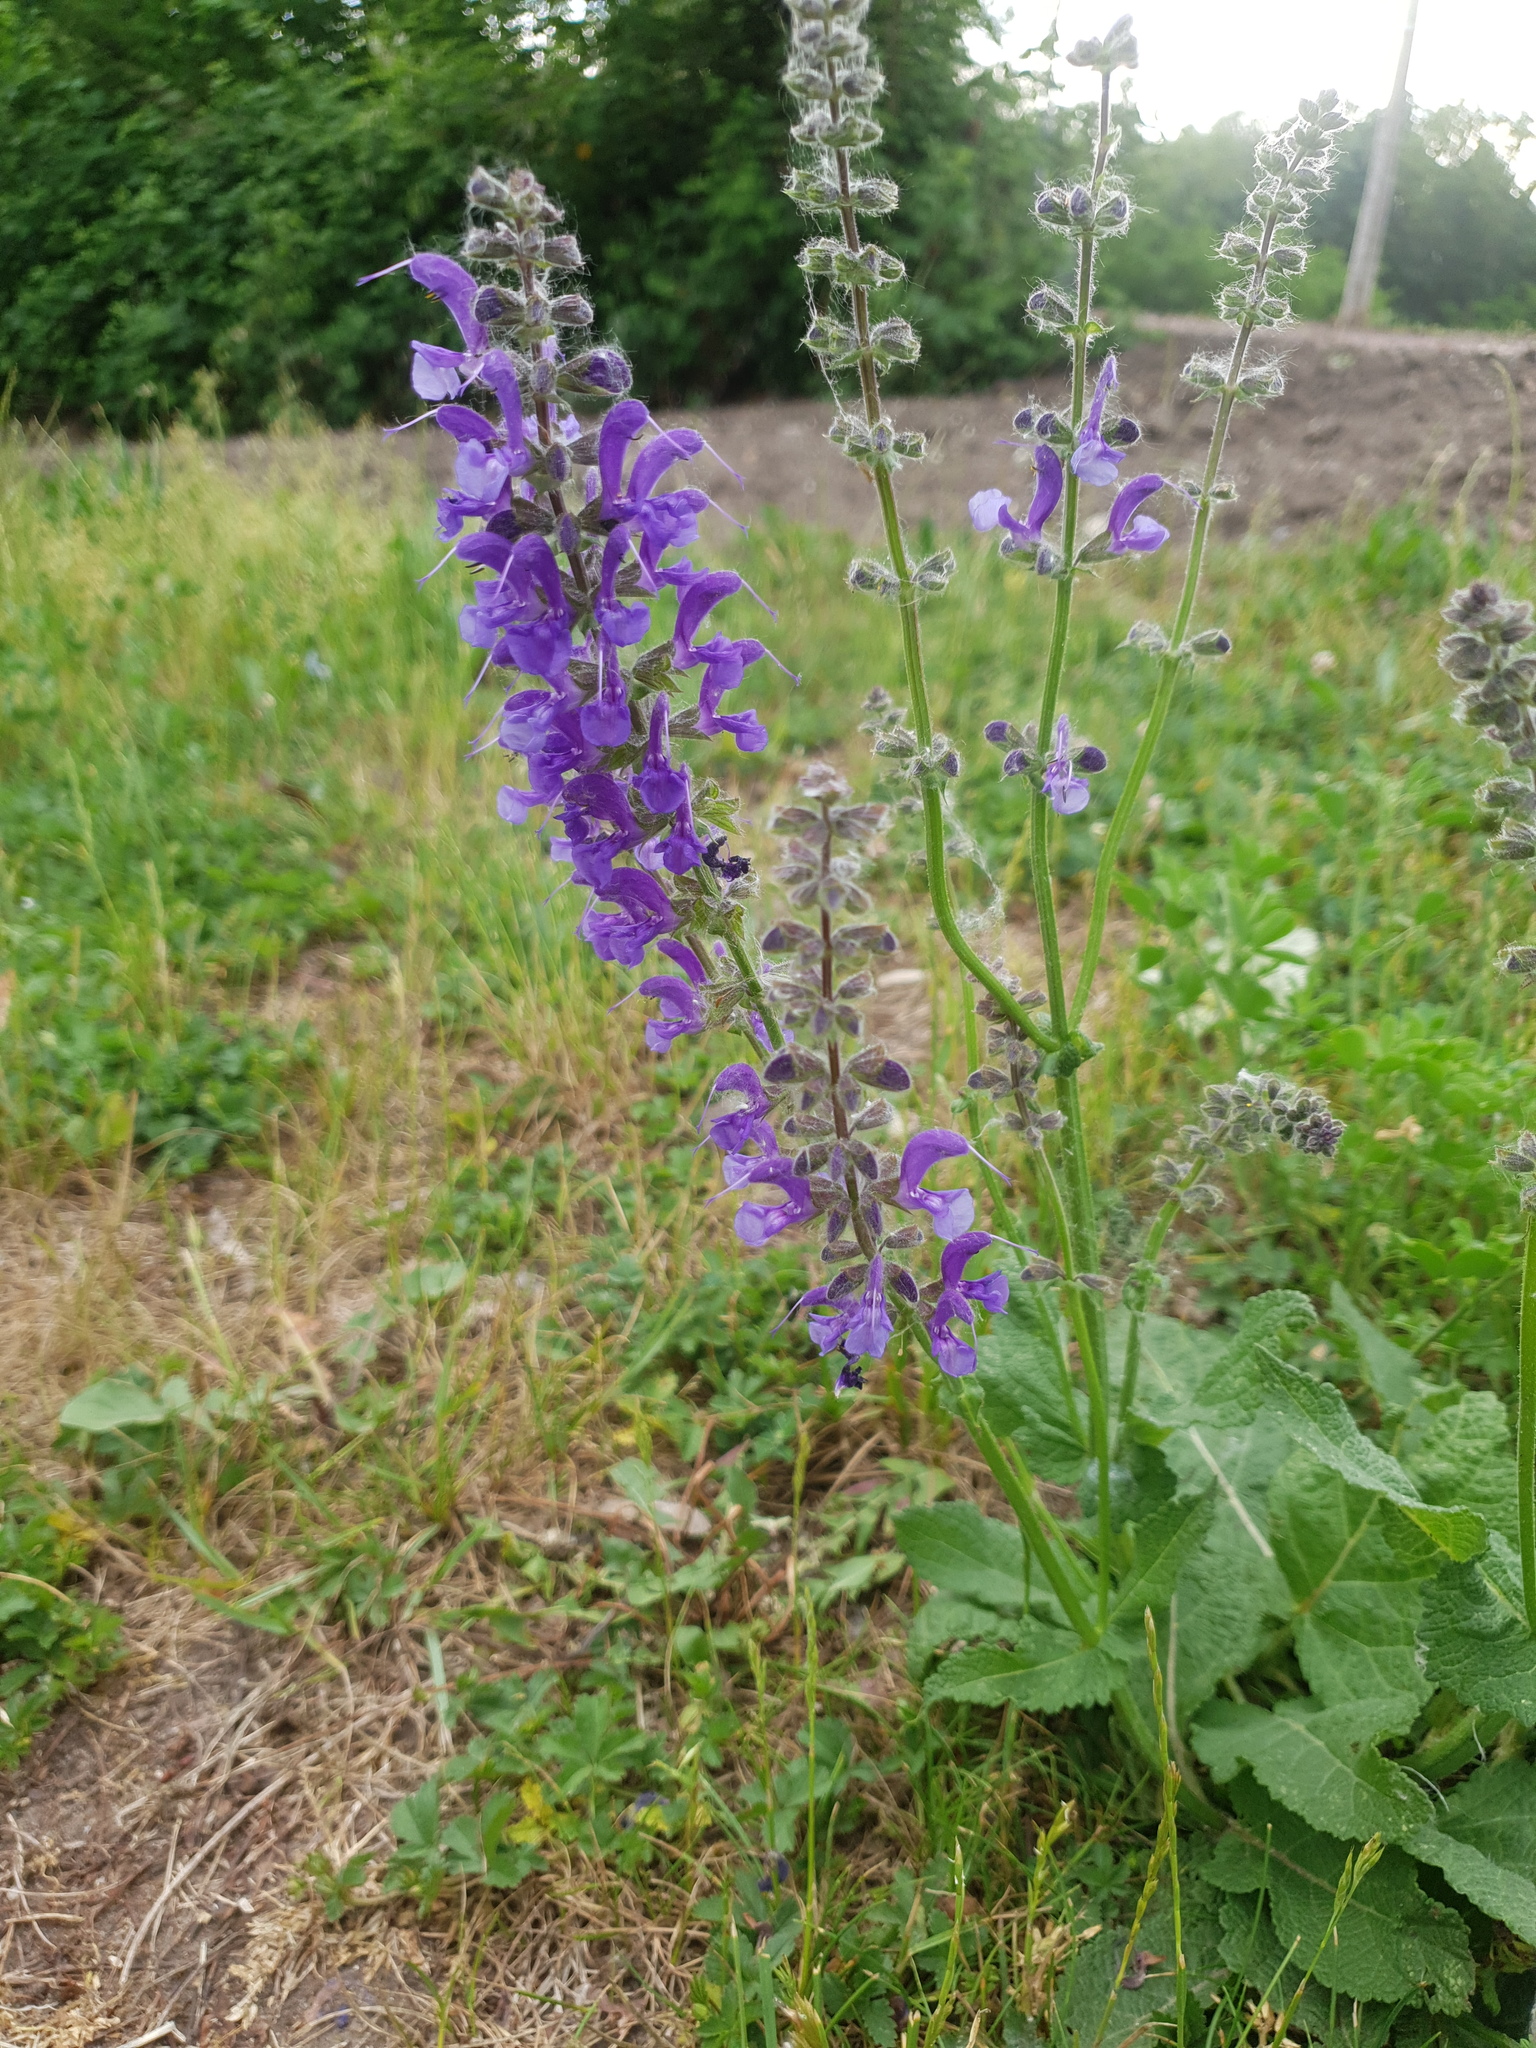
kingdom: Plantae
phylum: Tracheophyta
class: Magnoliopsida
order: Lamiales
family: Lamiaceae
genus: Salvia
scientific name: Salvia pratensis
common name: Meadow sage
